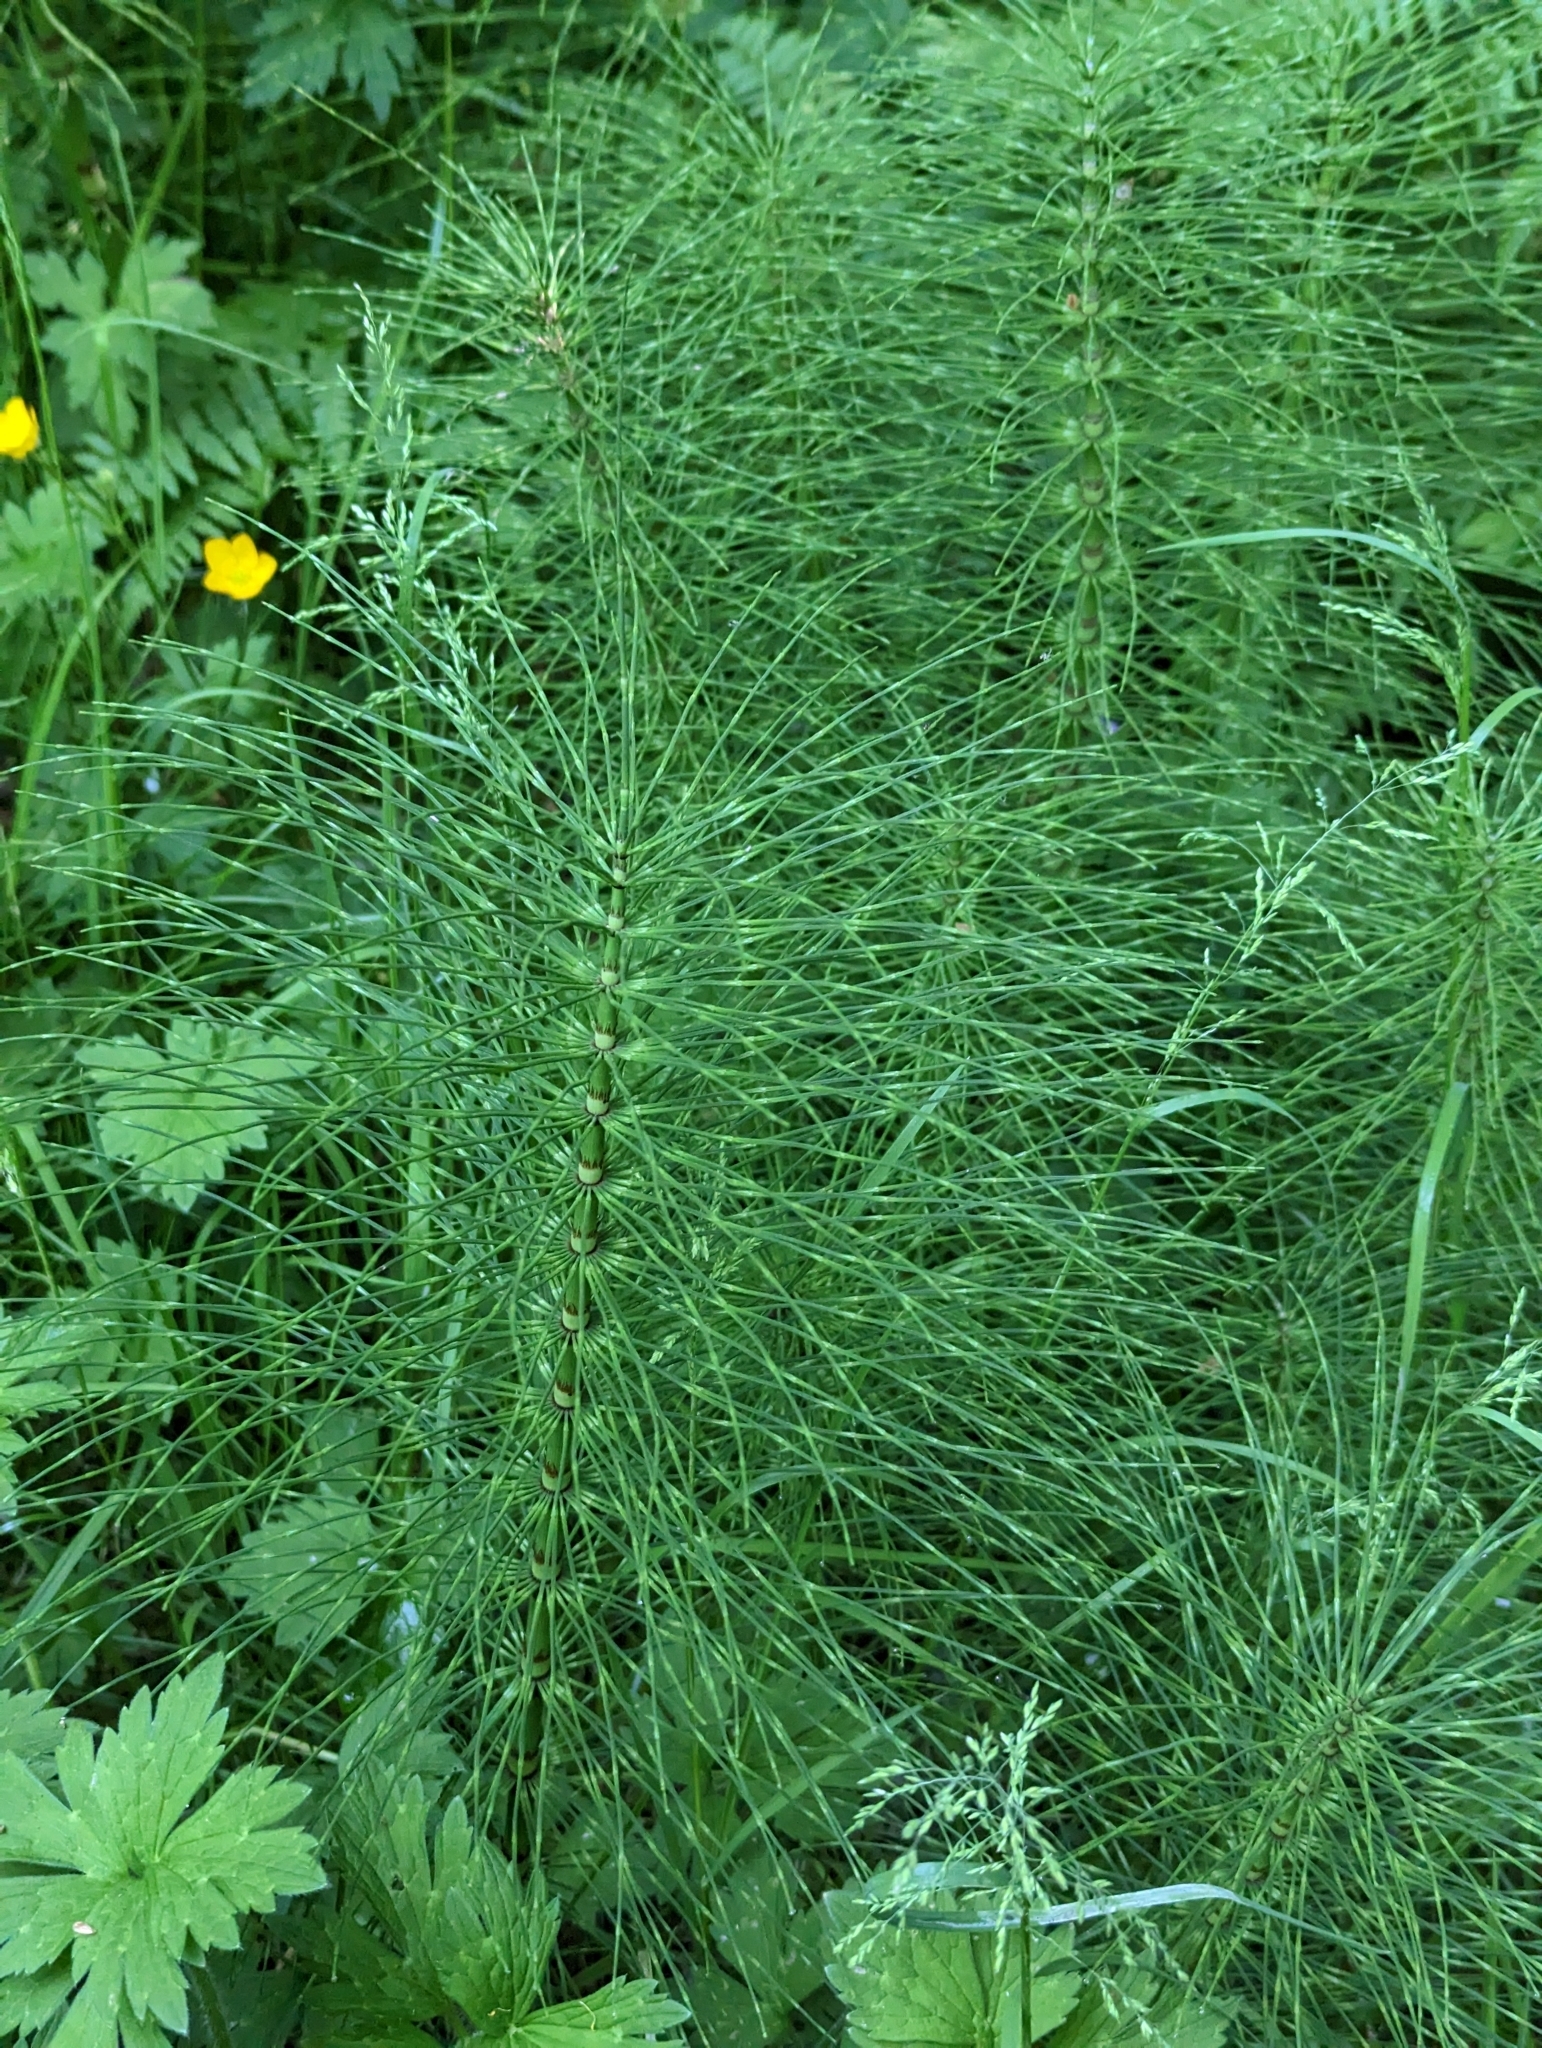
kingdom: Plantae
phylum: Tracheophyta
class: Polypodiopsida
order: Equisetales
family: Equisetaceae
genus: Equisetum
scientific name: Equisetum braunii
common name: Braun's horsetail
